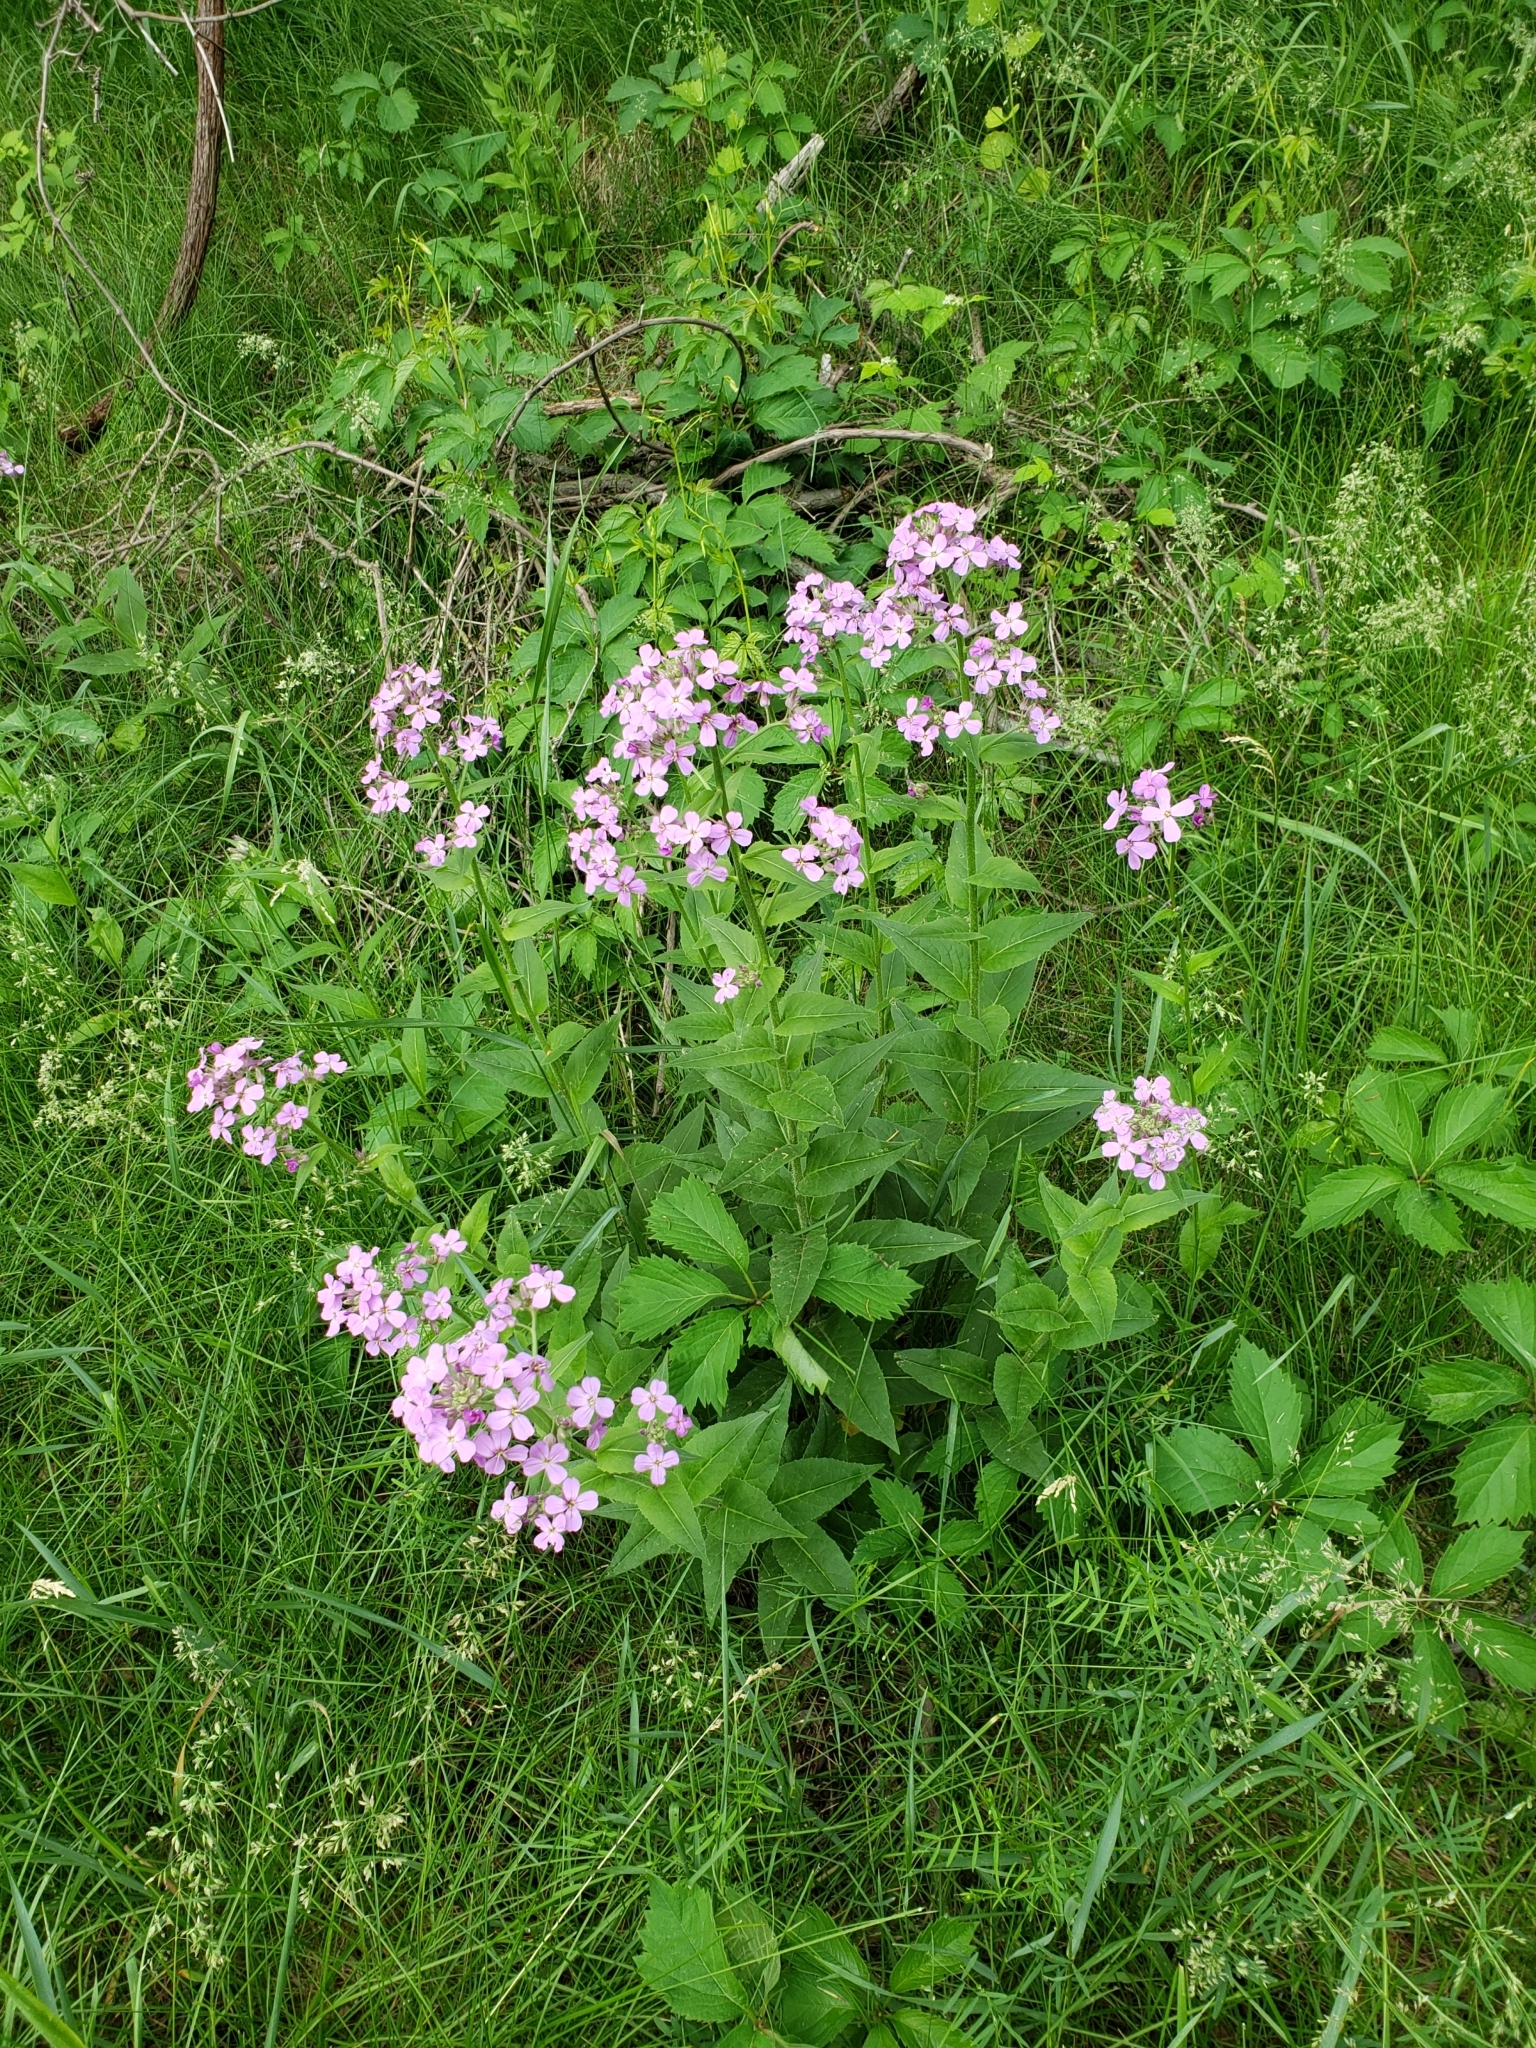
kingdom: Plantae
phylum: Tracheophyta
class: Magnoliopsida
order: Brassicales
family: Brassicaceae
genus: Hesperis
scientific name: Hesperis matronalis
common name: Dame's-violet
